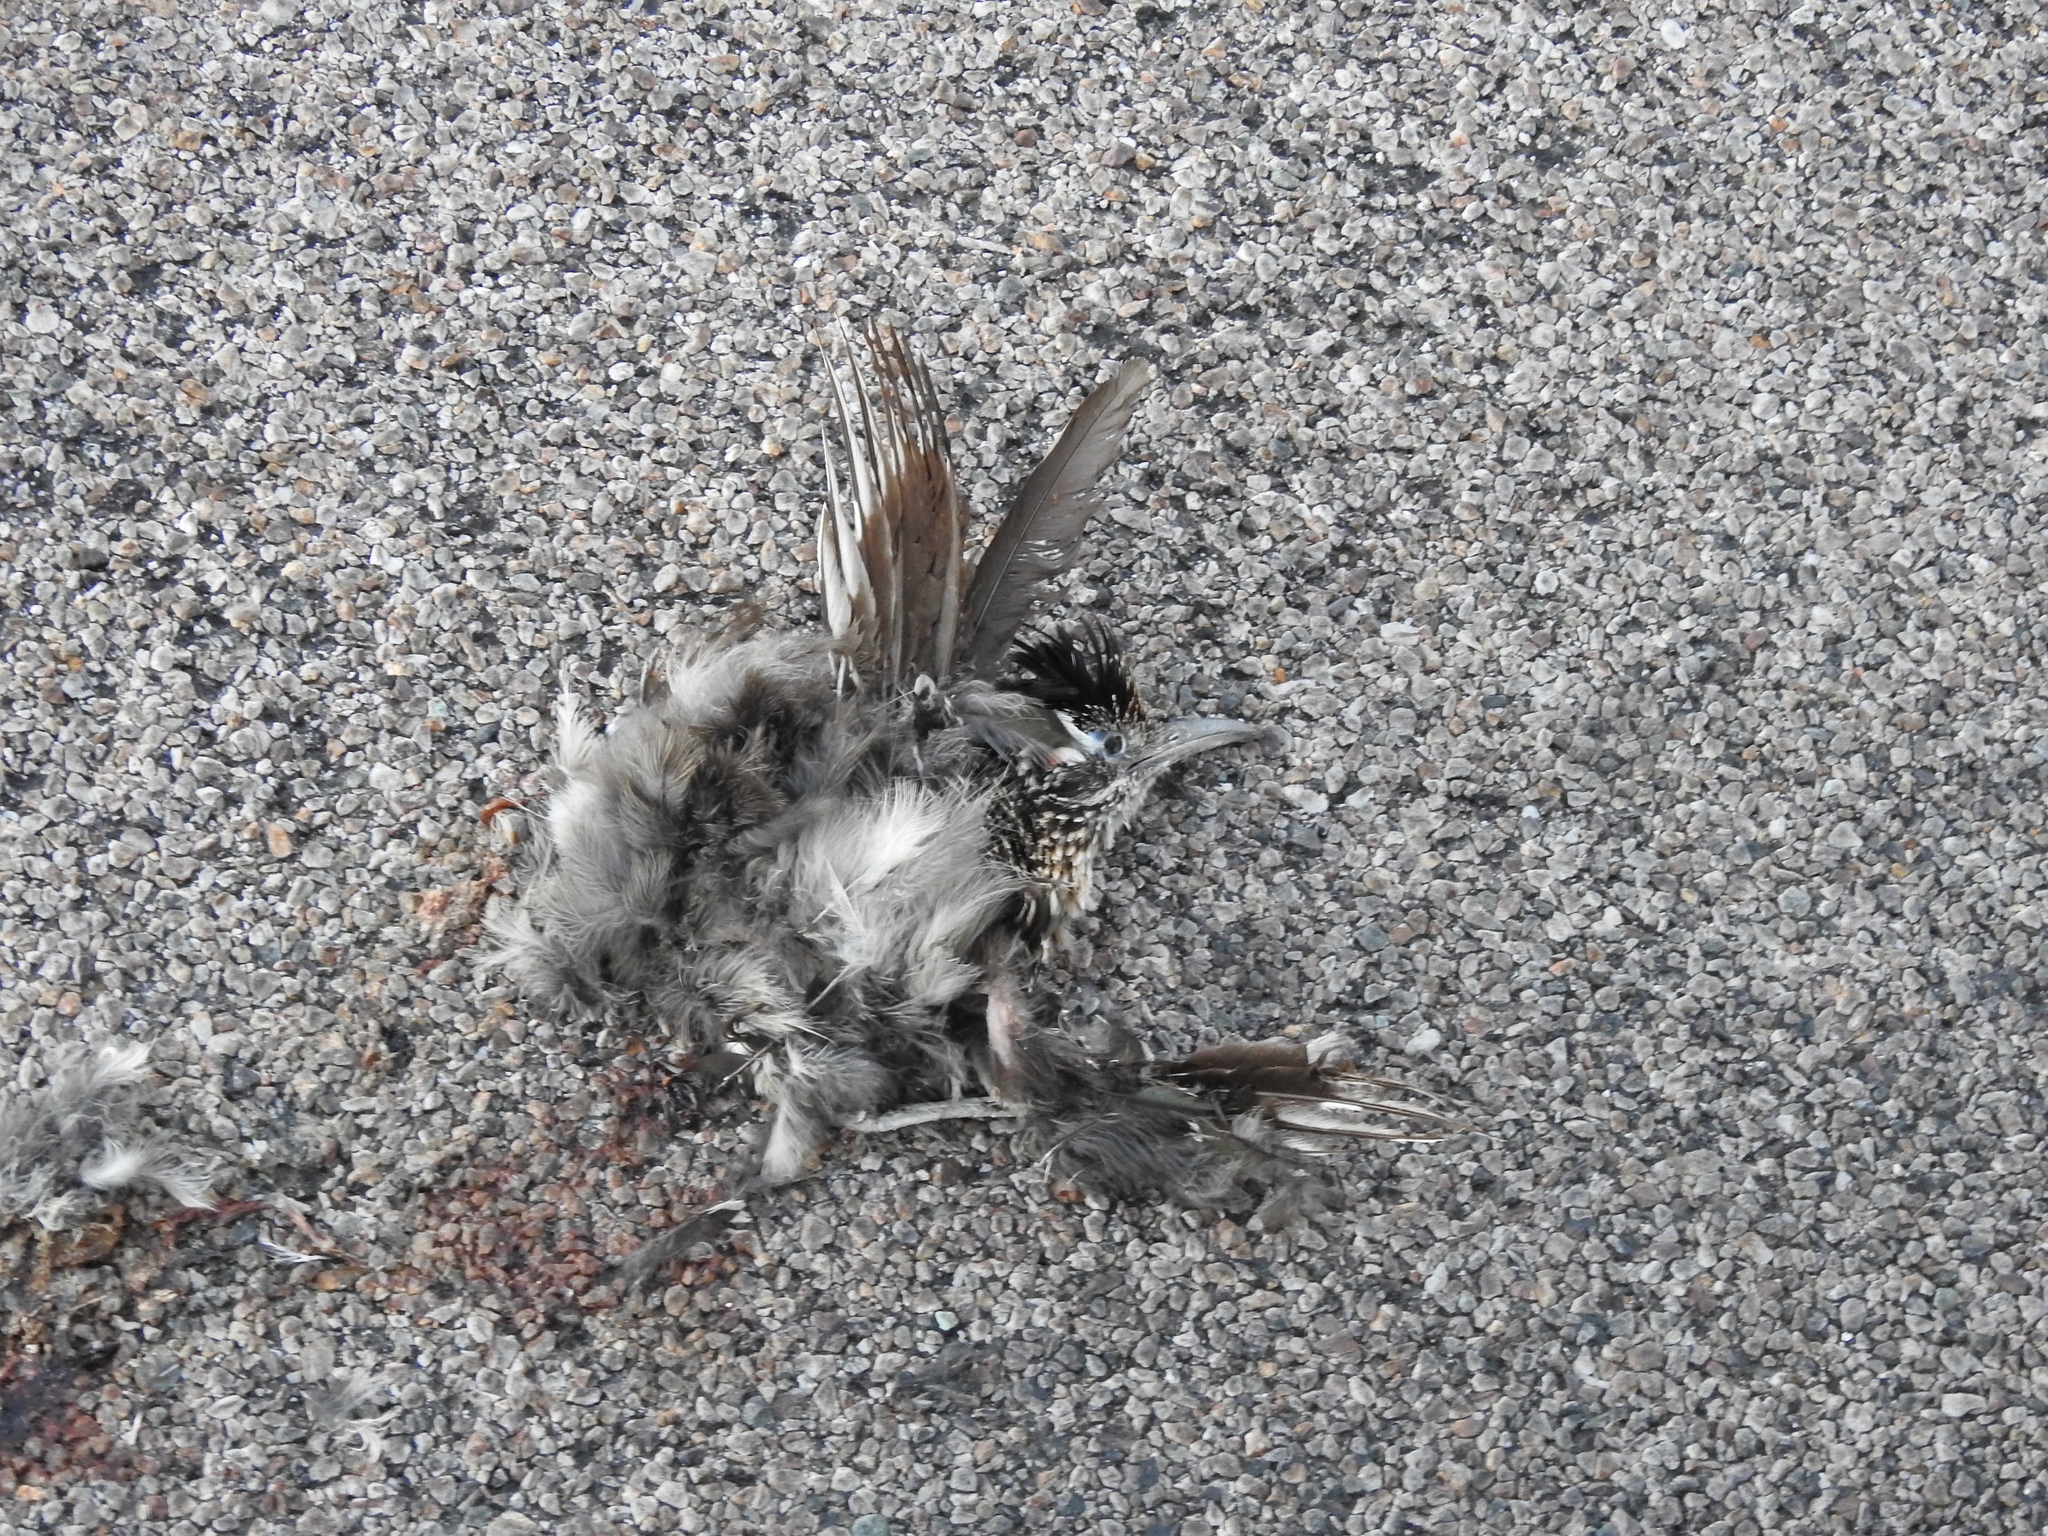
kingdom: Animalia
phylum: Chordata
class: Aves
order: Cuculiformes
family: Cuculidae
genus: Geococcyx
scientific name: Geococcyx californianus
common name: Greater roadrunner
